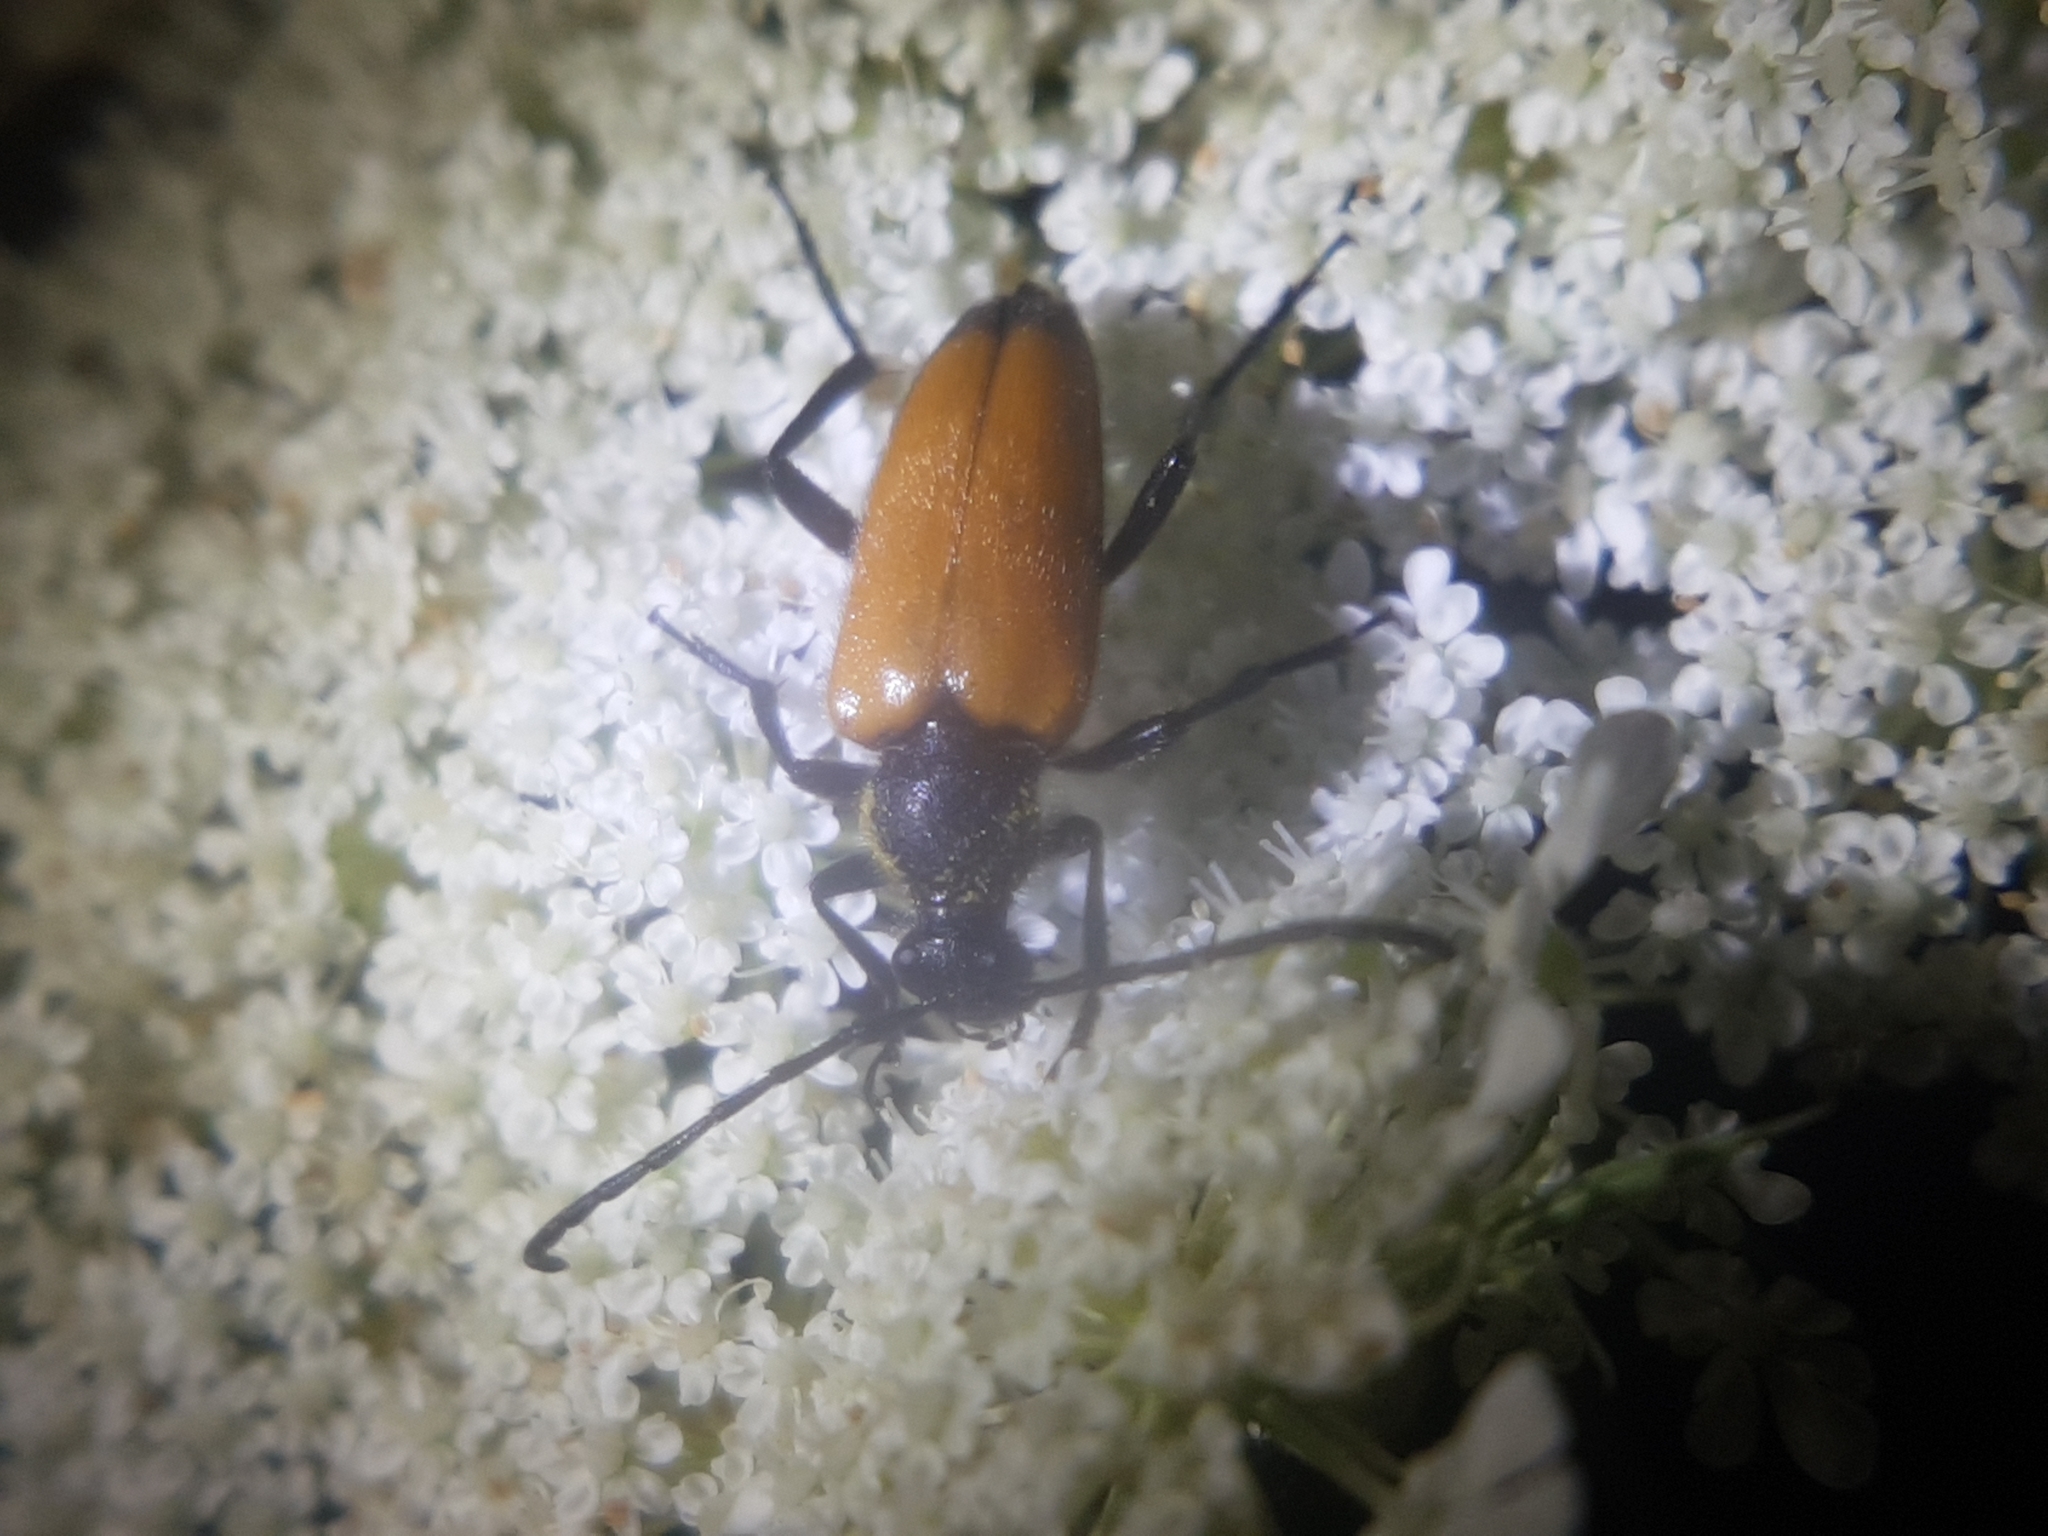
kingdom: Animalia
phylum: Arthropoda
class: Insecta
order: Coleoptera
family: Cerambycidae
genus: Paracorymbia
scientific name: Paracorymbia fulva
